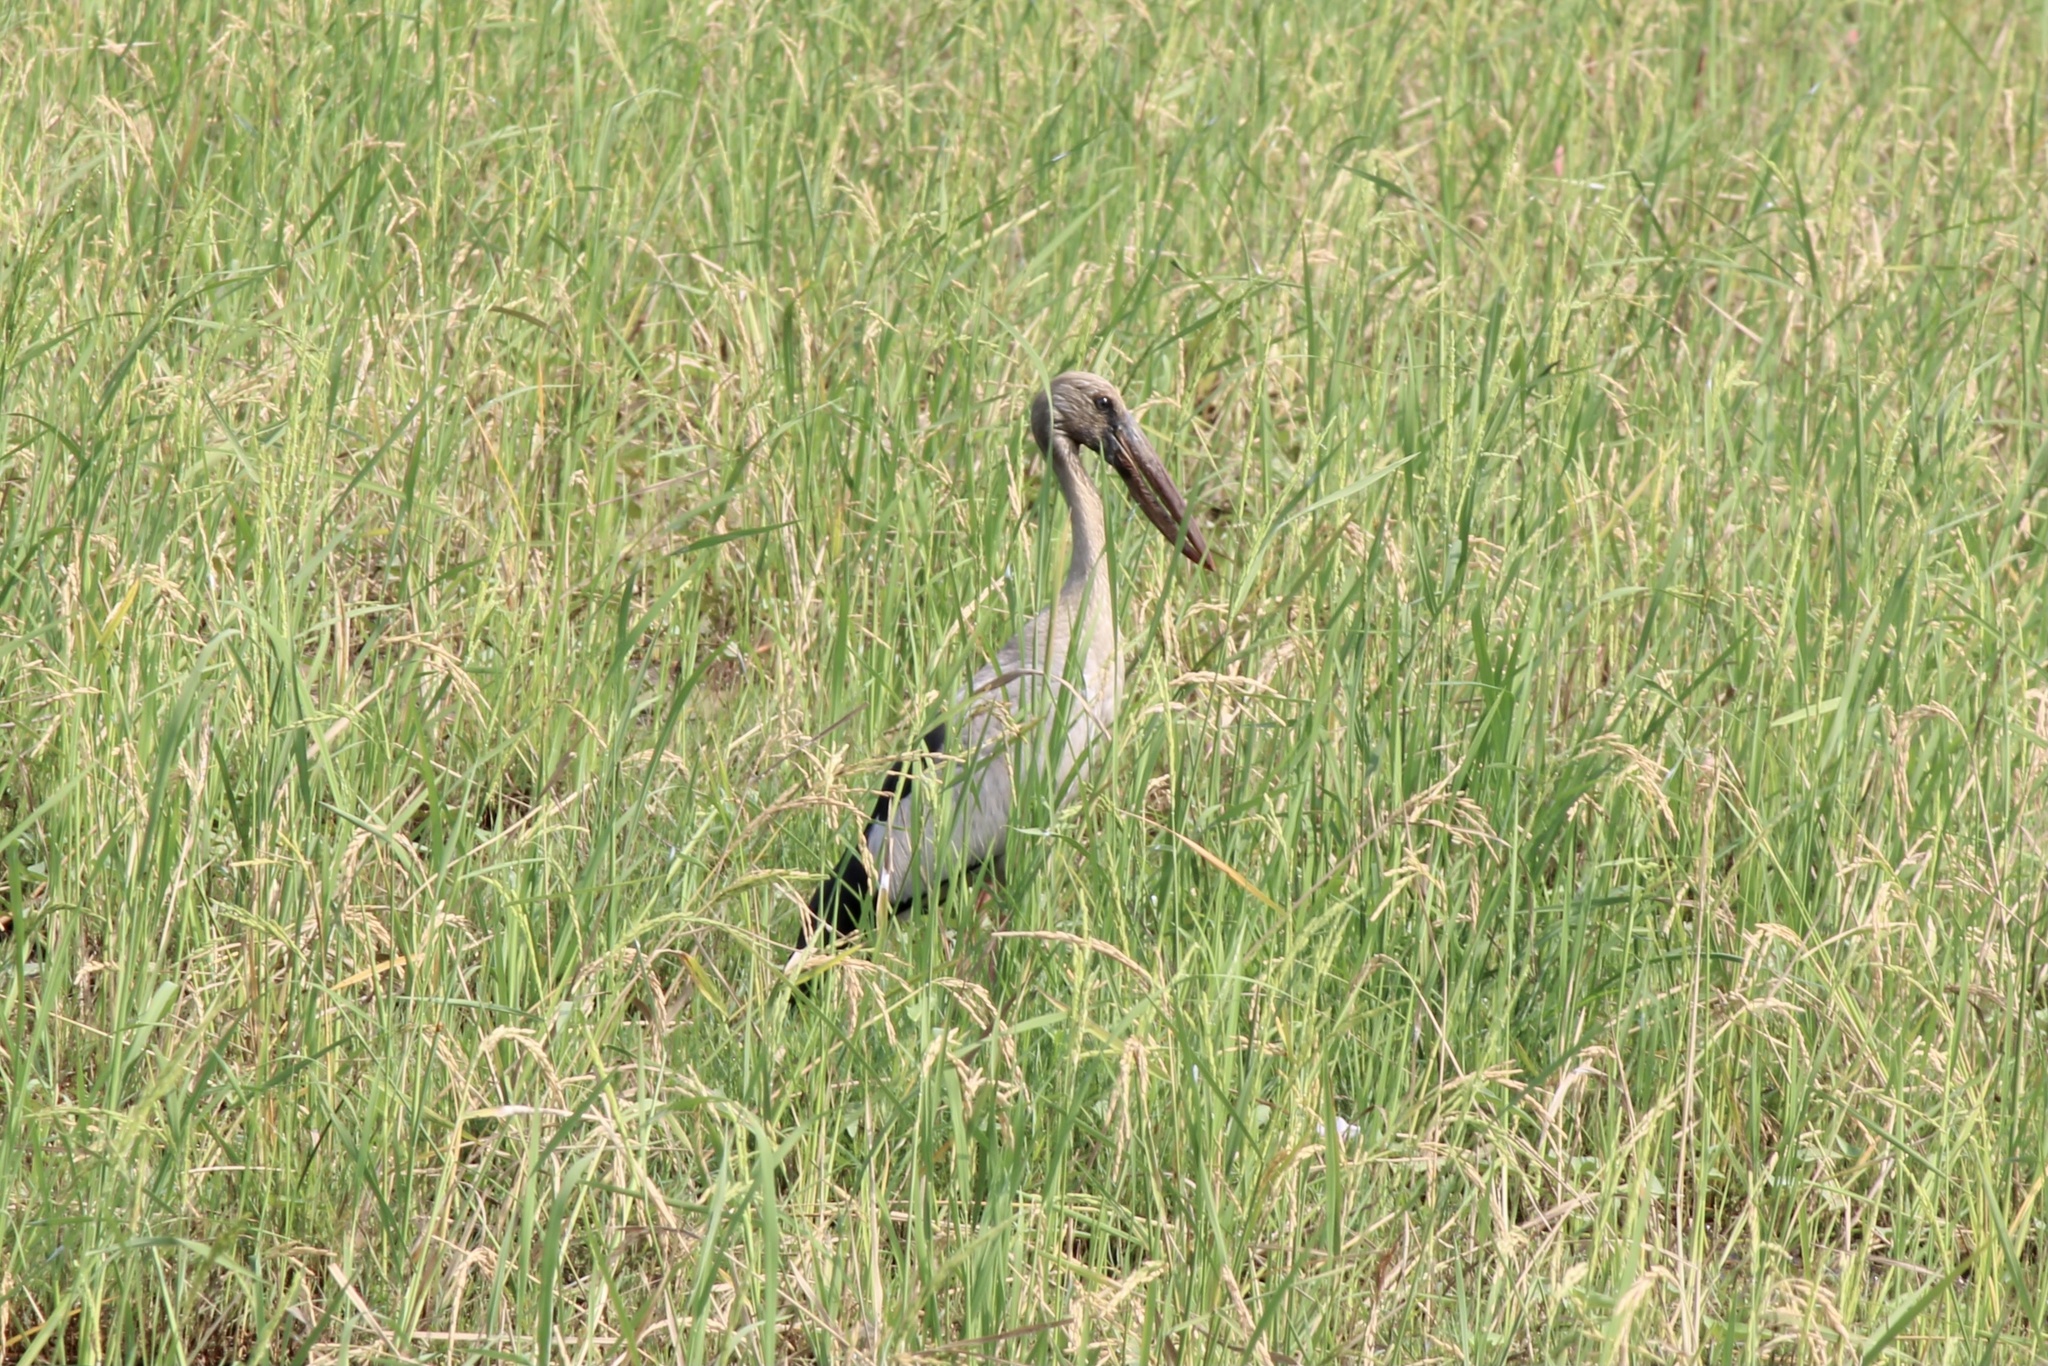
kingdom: Animalia
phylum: Chordata
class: Aves
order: Ciconiiformes
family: Ciconiidae
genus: Anastomus
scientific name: Anastomus oscitans
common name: Asian openbill
